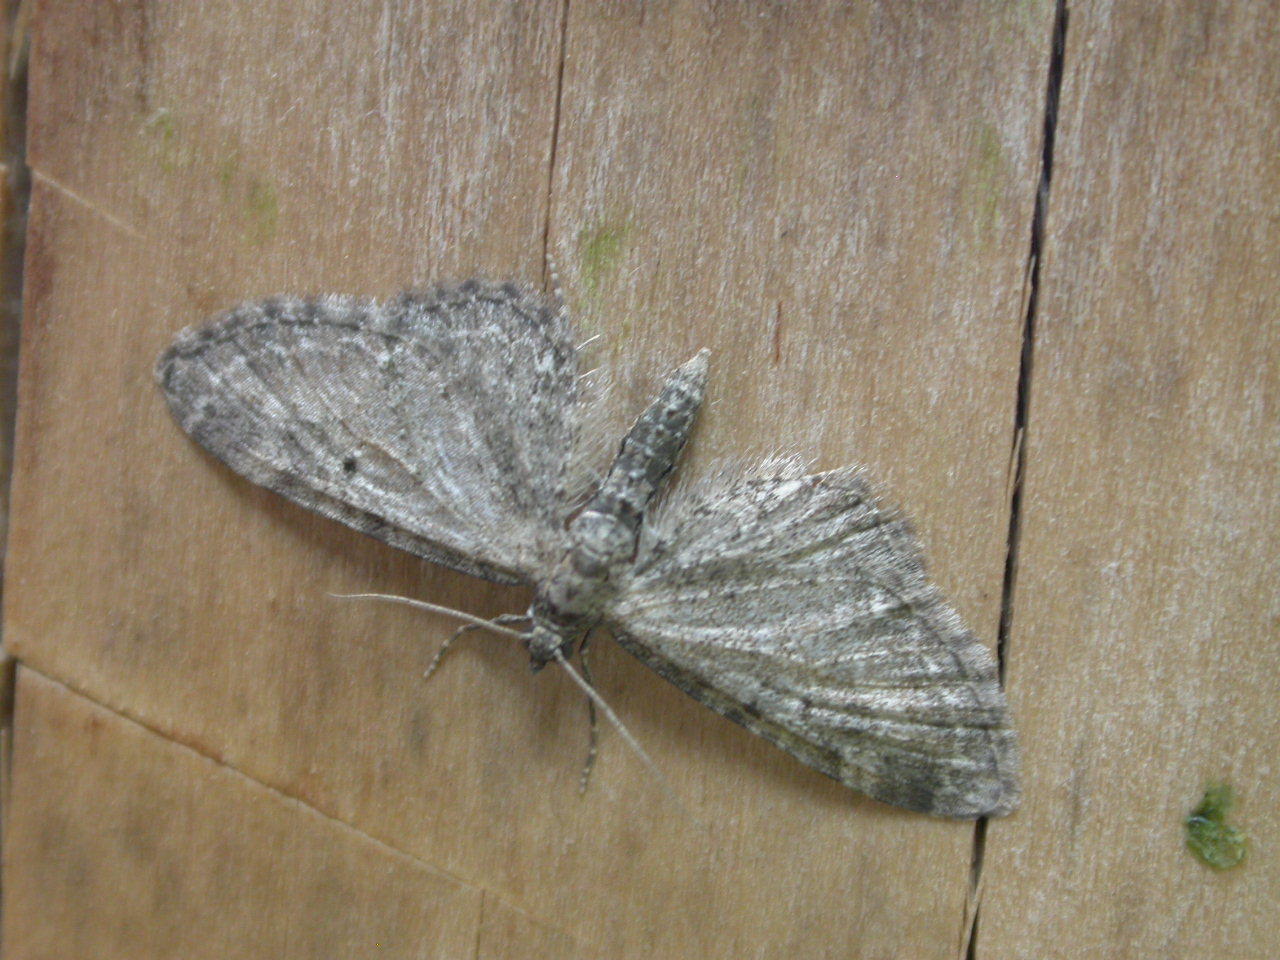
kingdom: Animalia
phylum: Arthropoda
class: Insecta
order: Lepidoptera
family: Geometridae
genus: Eupithecia
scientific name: Eupithecia vulgata
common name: Common pug
